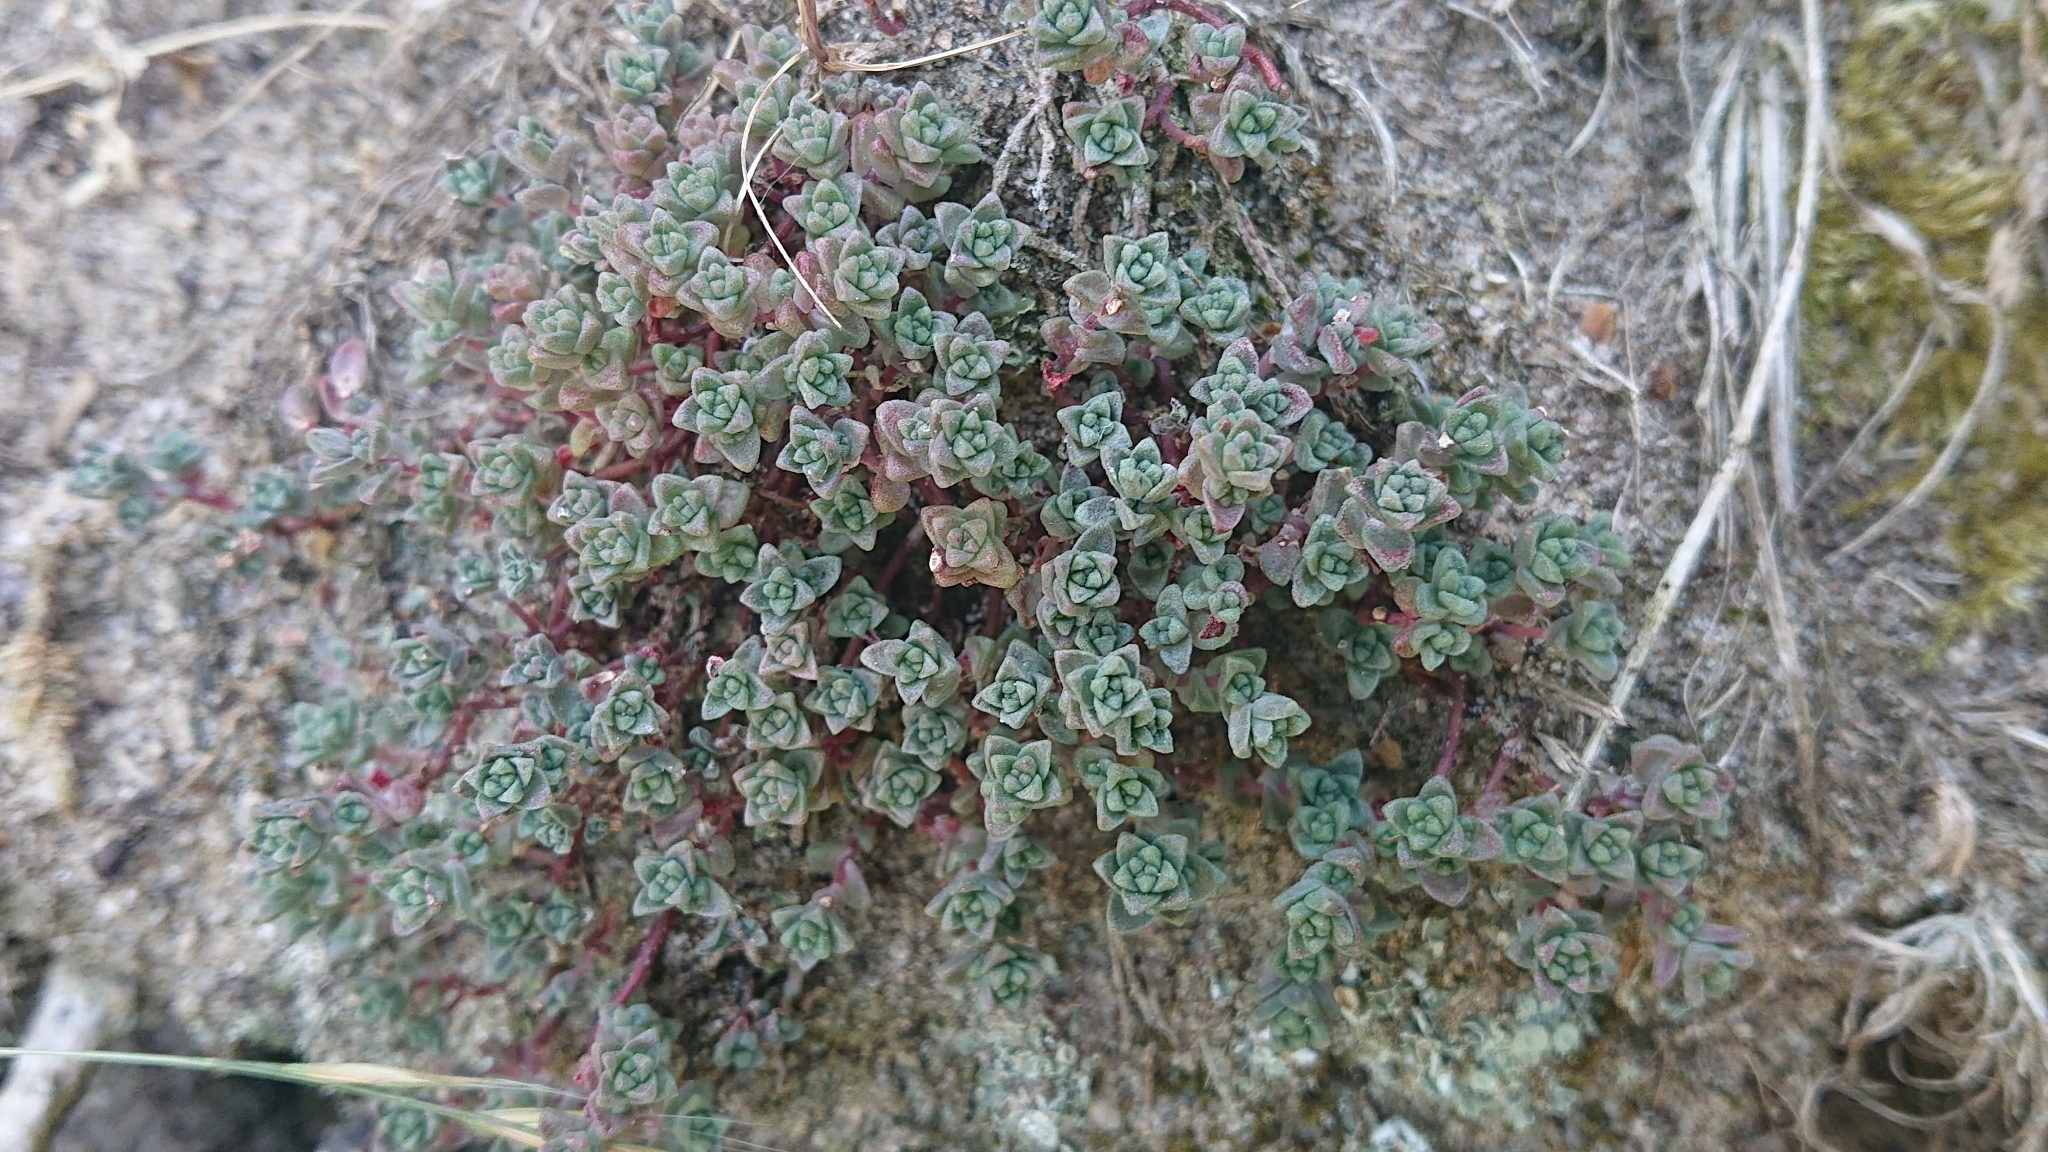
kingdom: Plantae
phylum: Tracheophyta
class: Magnoliopsida
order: Saxifragales
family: Crassulaceae
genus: Sedum
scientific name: Sedum anglicum
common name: English stonecrop
